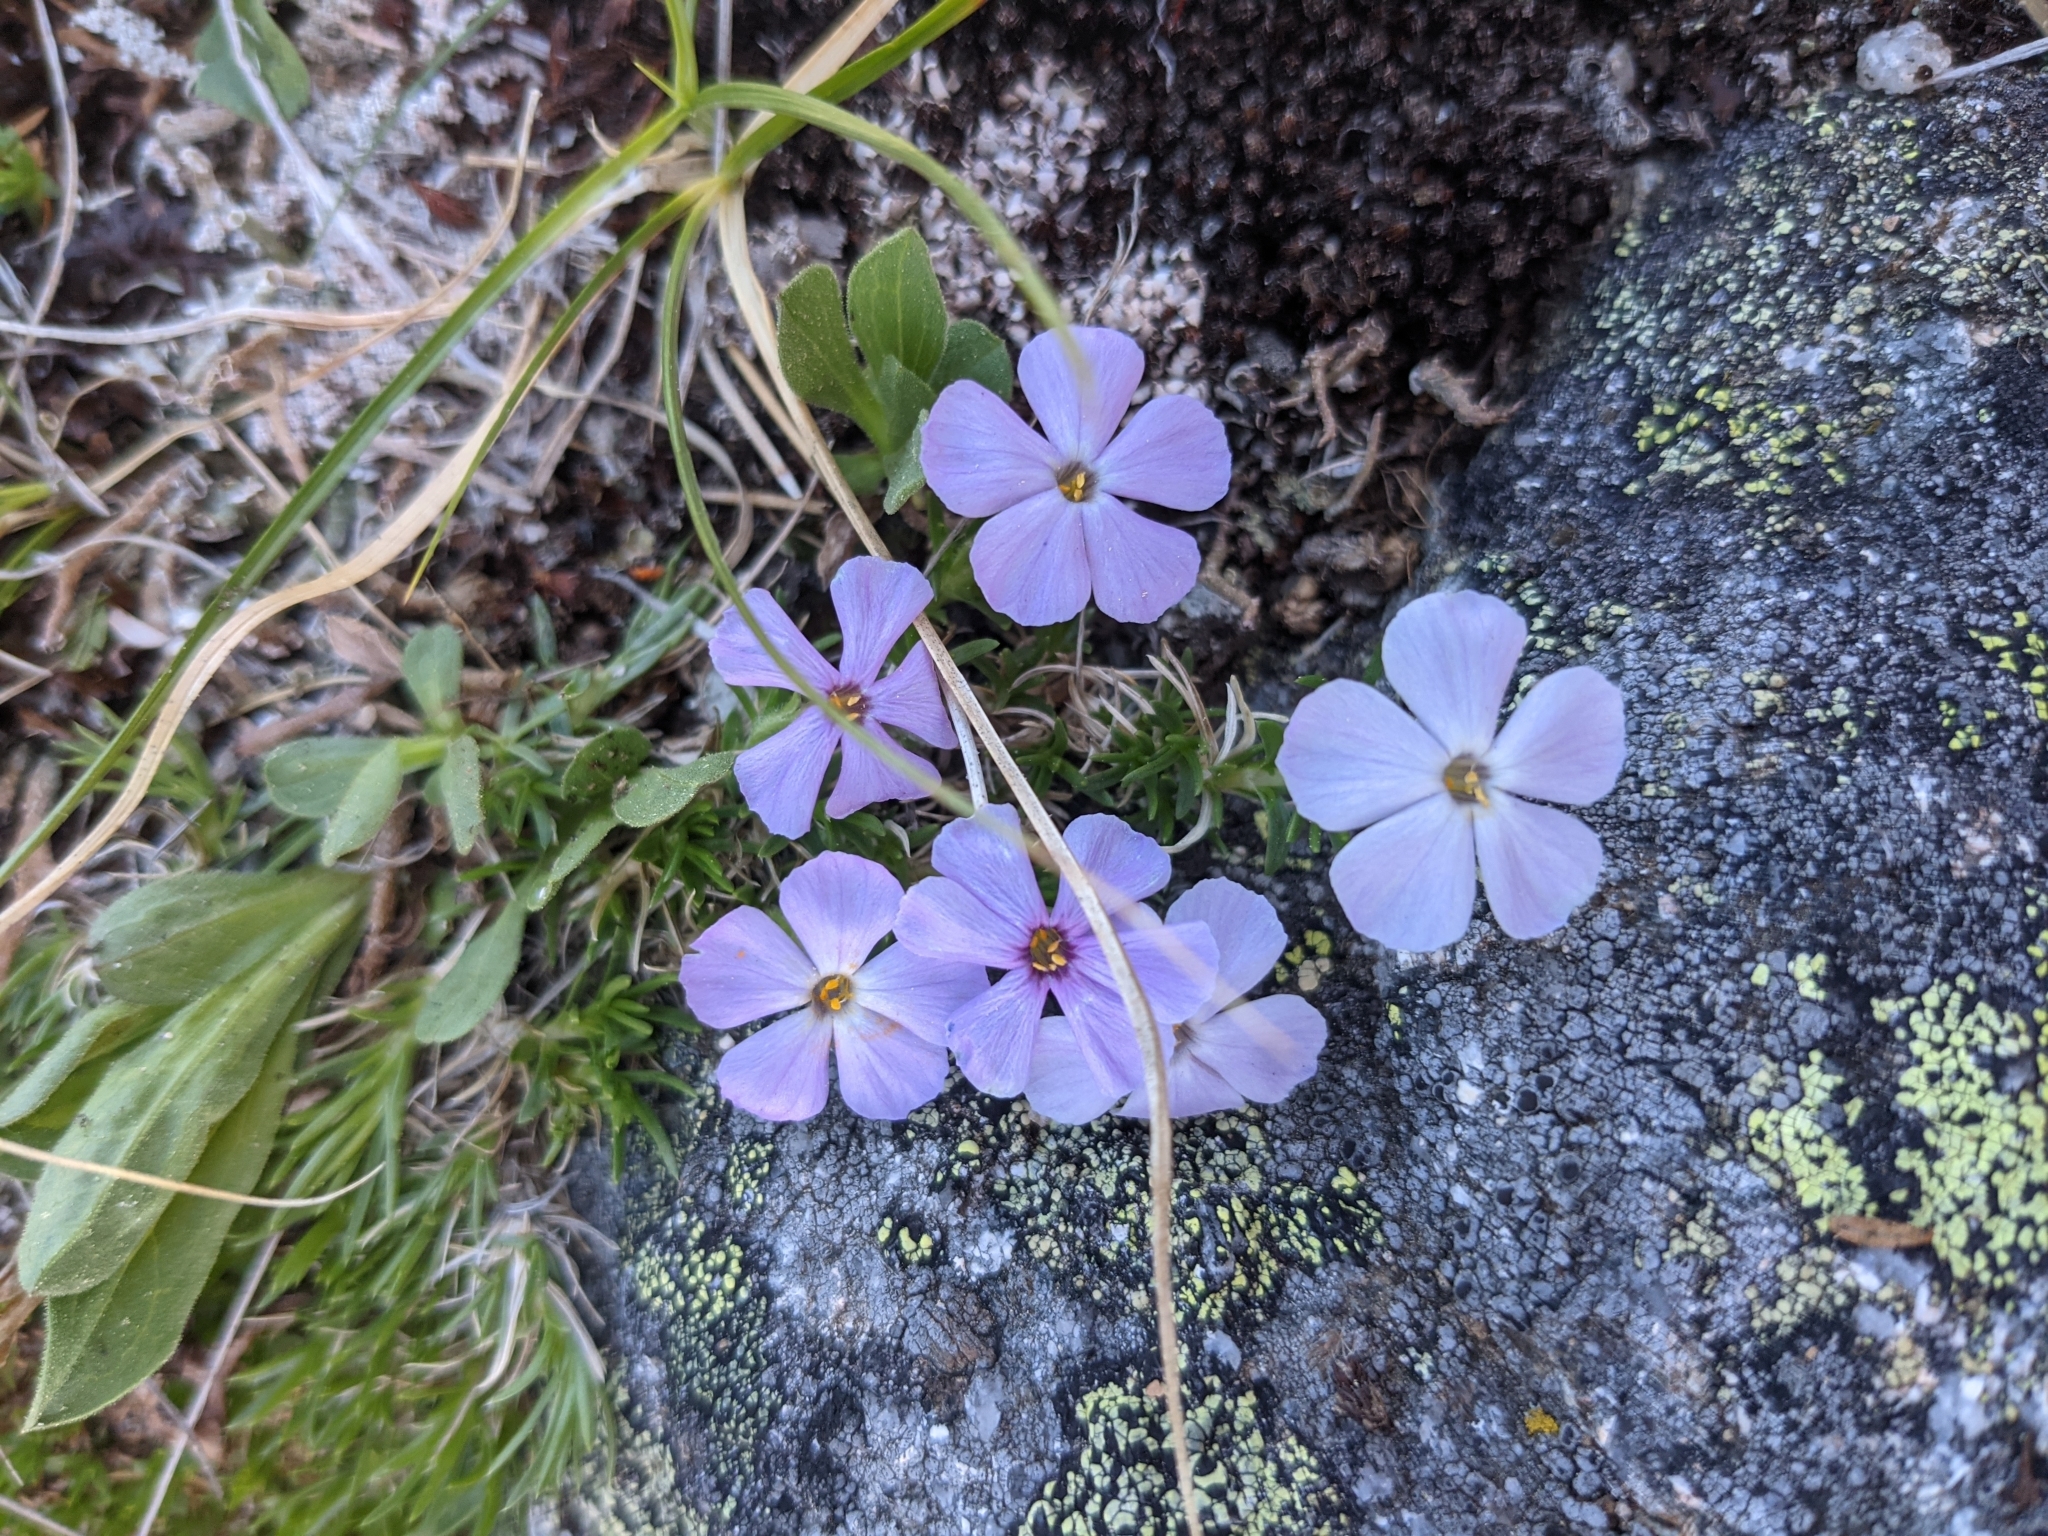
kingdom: Plantae
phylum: Tracheophyta
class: Magnoliopsida
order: Ericales
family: Polemoniaceae
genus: Phlox
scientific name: Phlox diffusa
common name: Mat phlox
